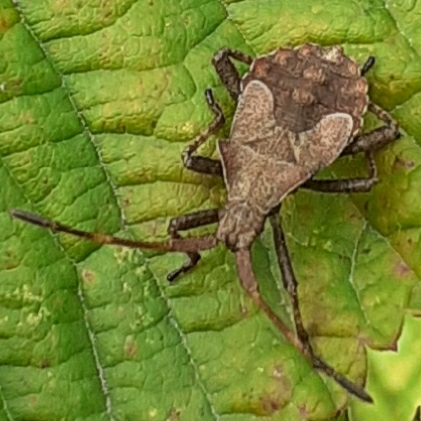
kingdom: Animalia
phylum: Arthropoda
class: Insecta
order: Hemiptera
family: Coreidae
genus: Coreus
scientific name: Coreus marginatus
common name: Dock bug
